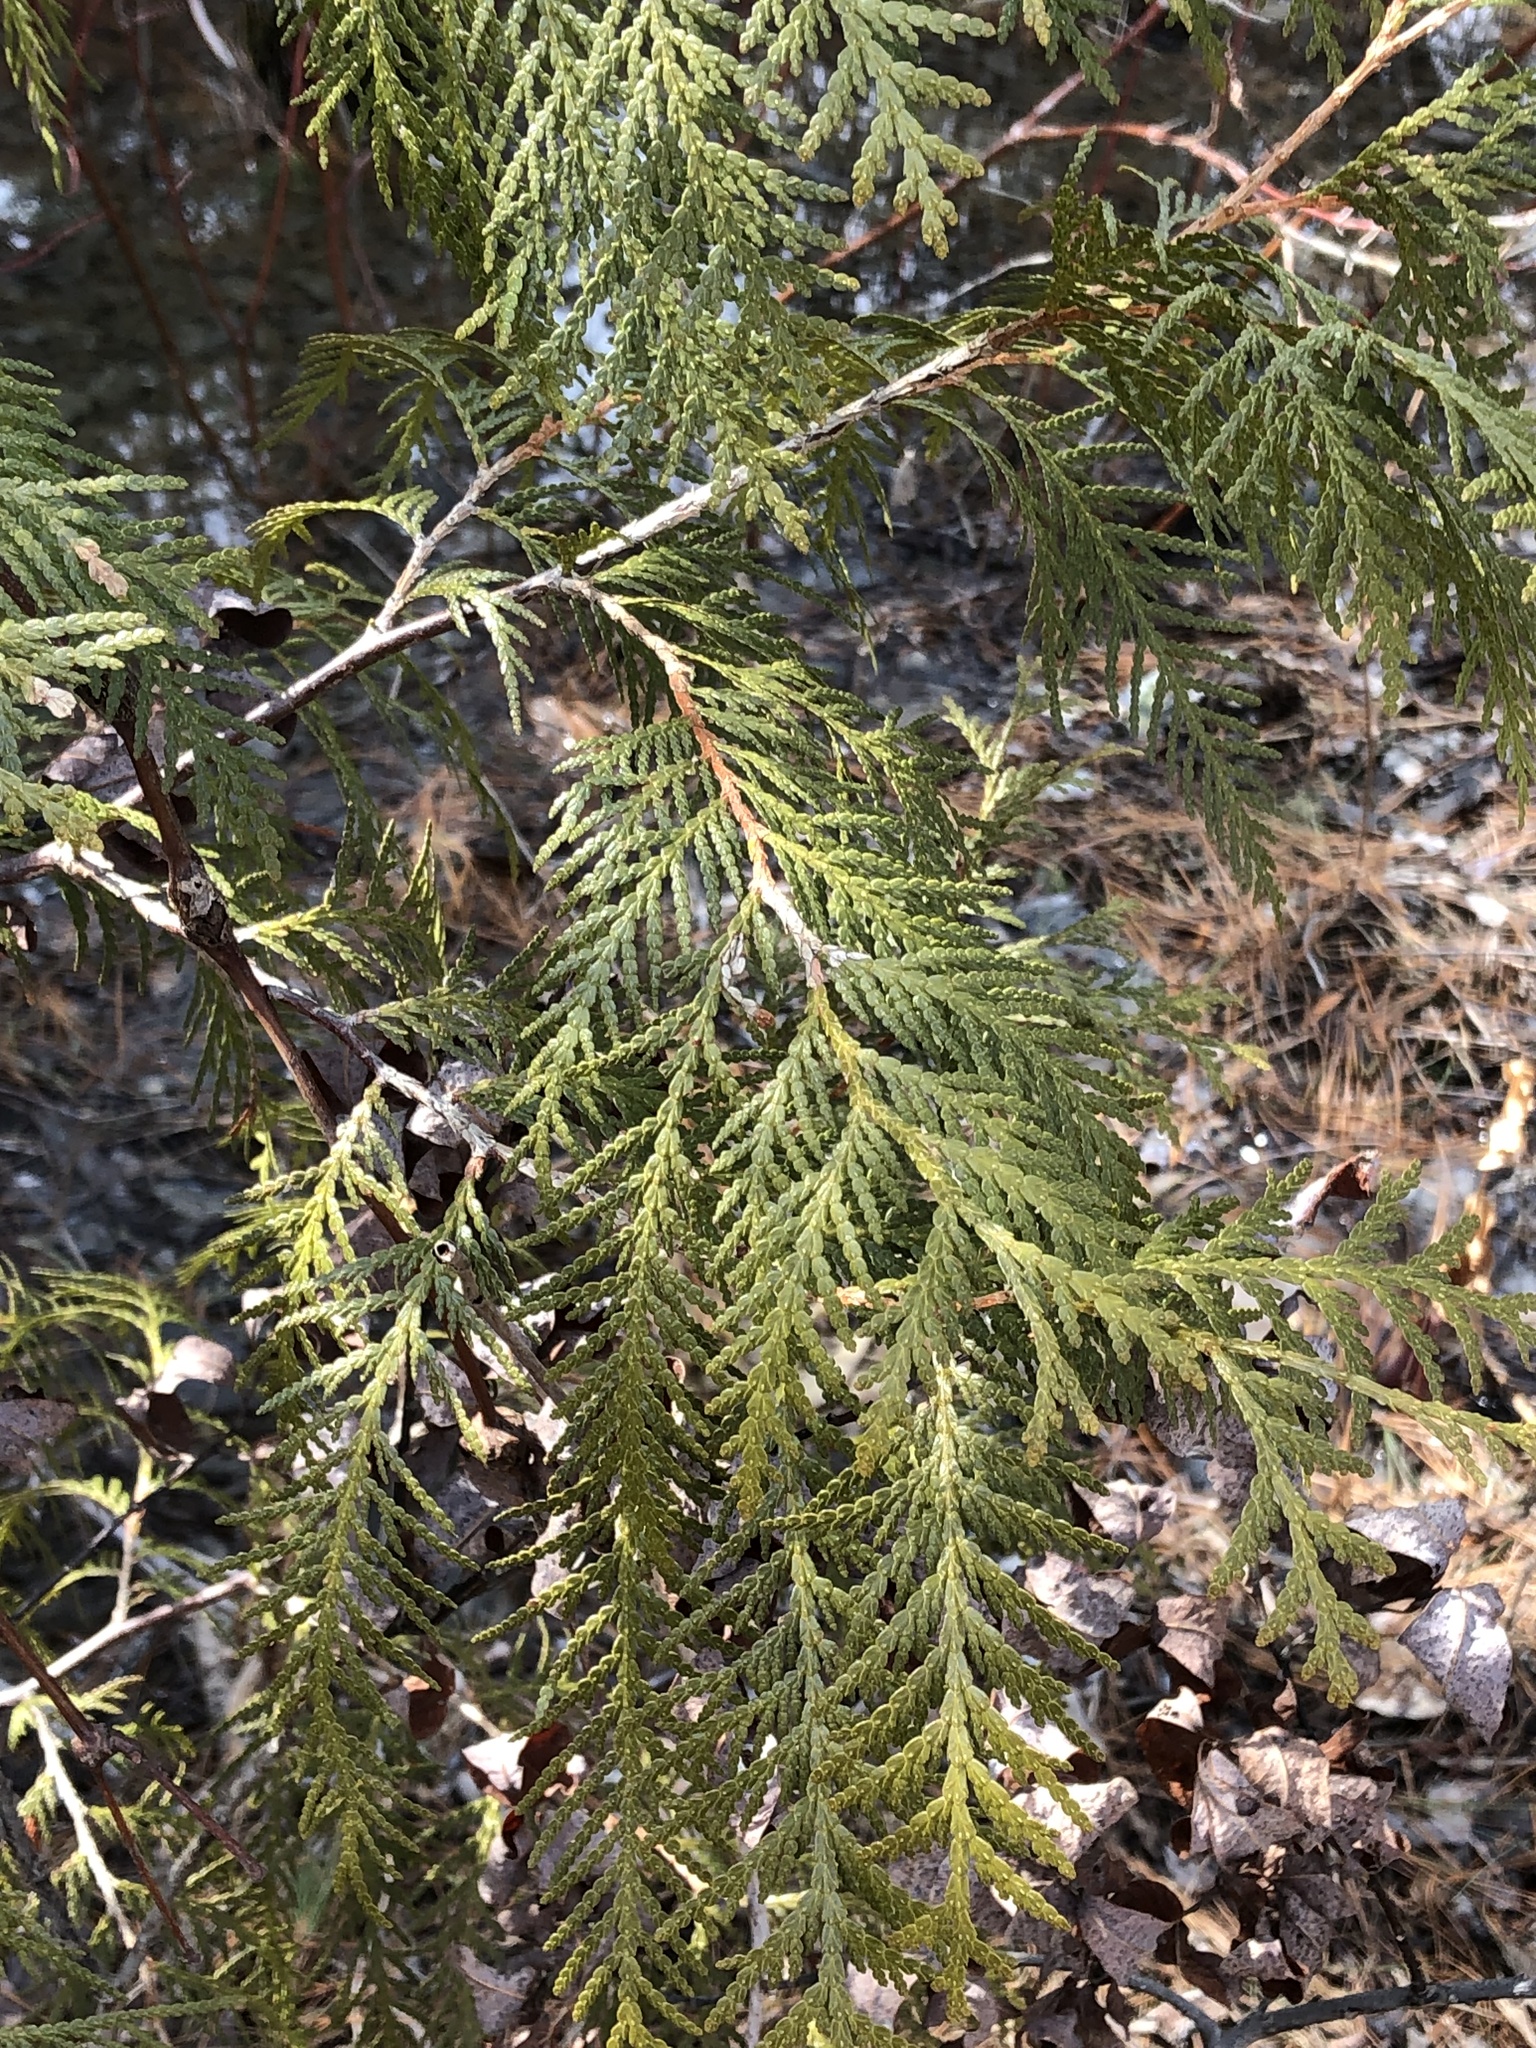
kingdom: Plantae
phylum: Tracheophyta
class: Pinopsida
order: Pinales
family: Cupressaceae
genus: Thuja
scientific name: Thuja occidentalis
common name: Northern white-cedar
